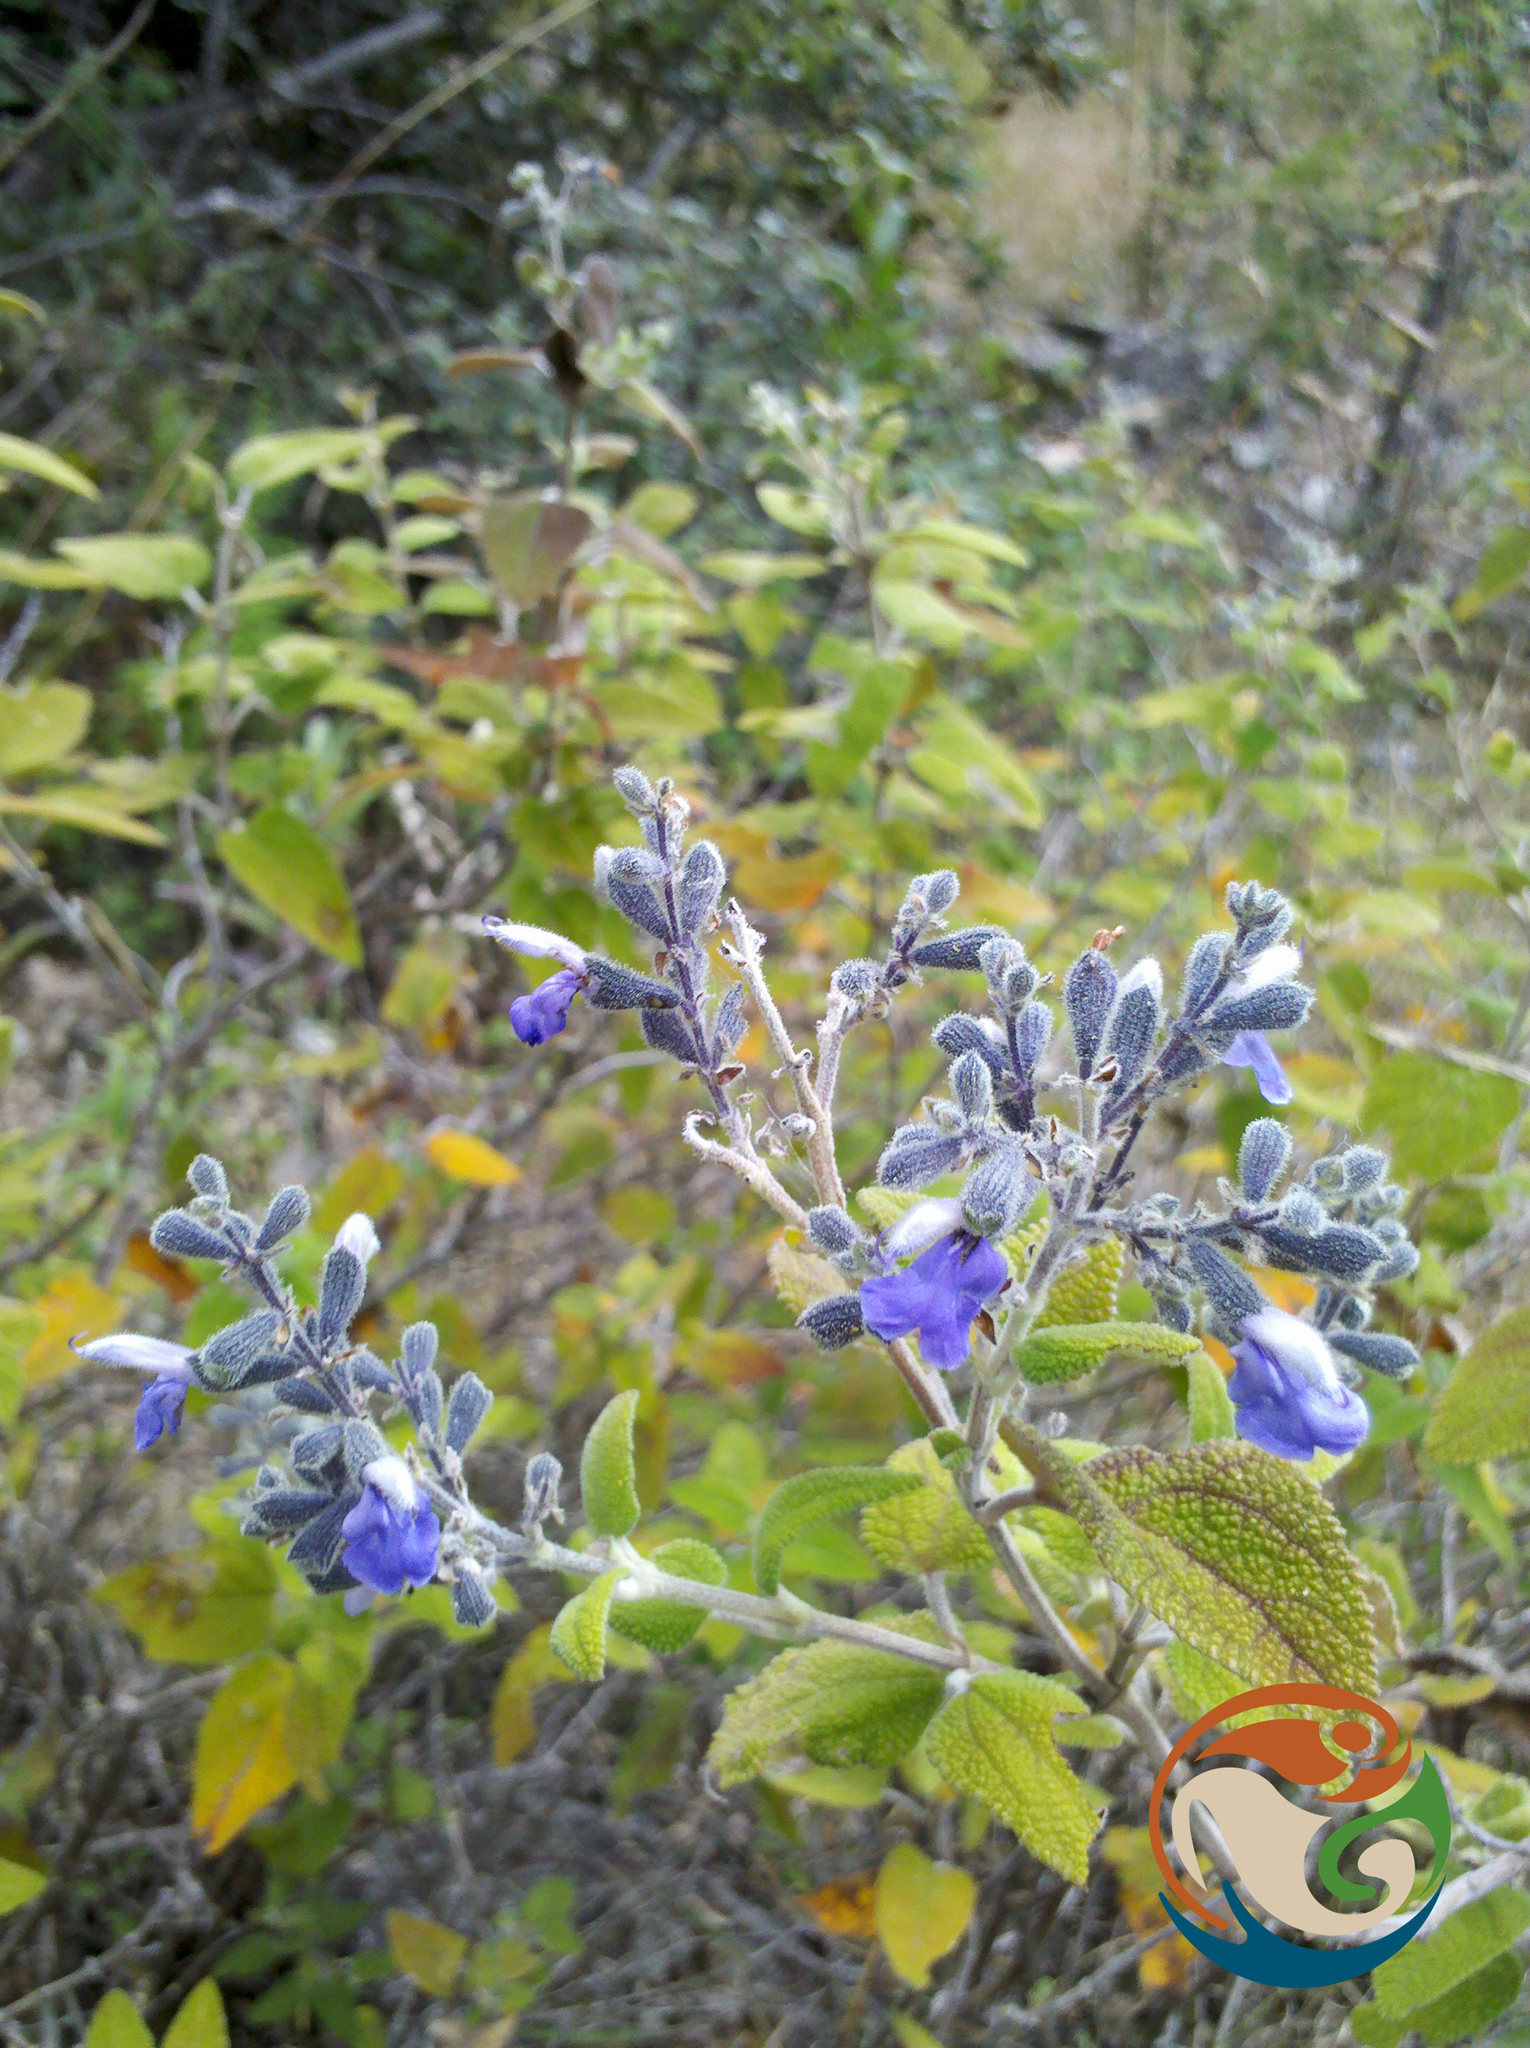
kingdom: Plantae
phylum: Tracheophyta
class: Magnoliopsida
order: Lamiales
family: Lamiaceae
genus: Salvia
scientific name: Salvia melissodora
